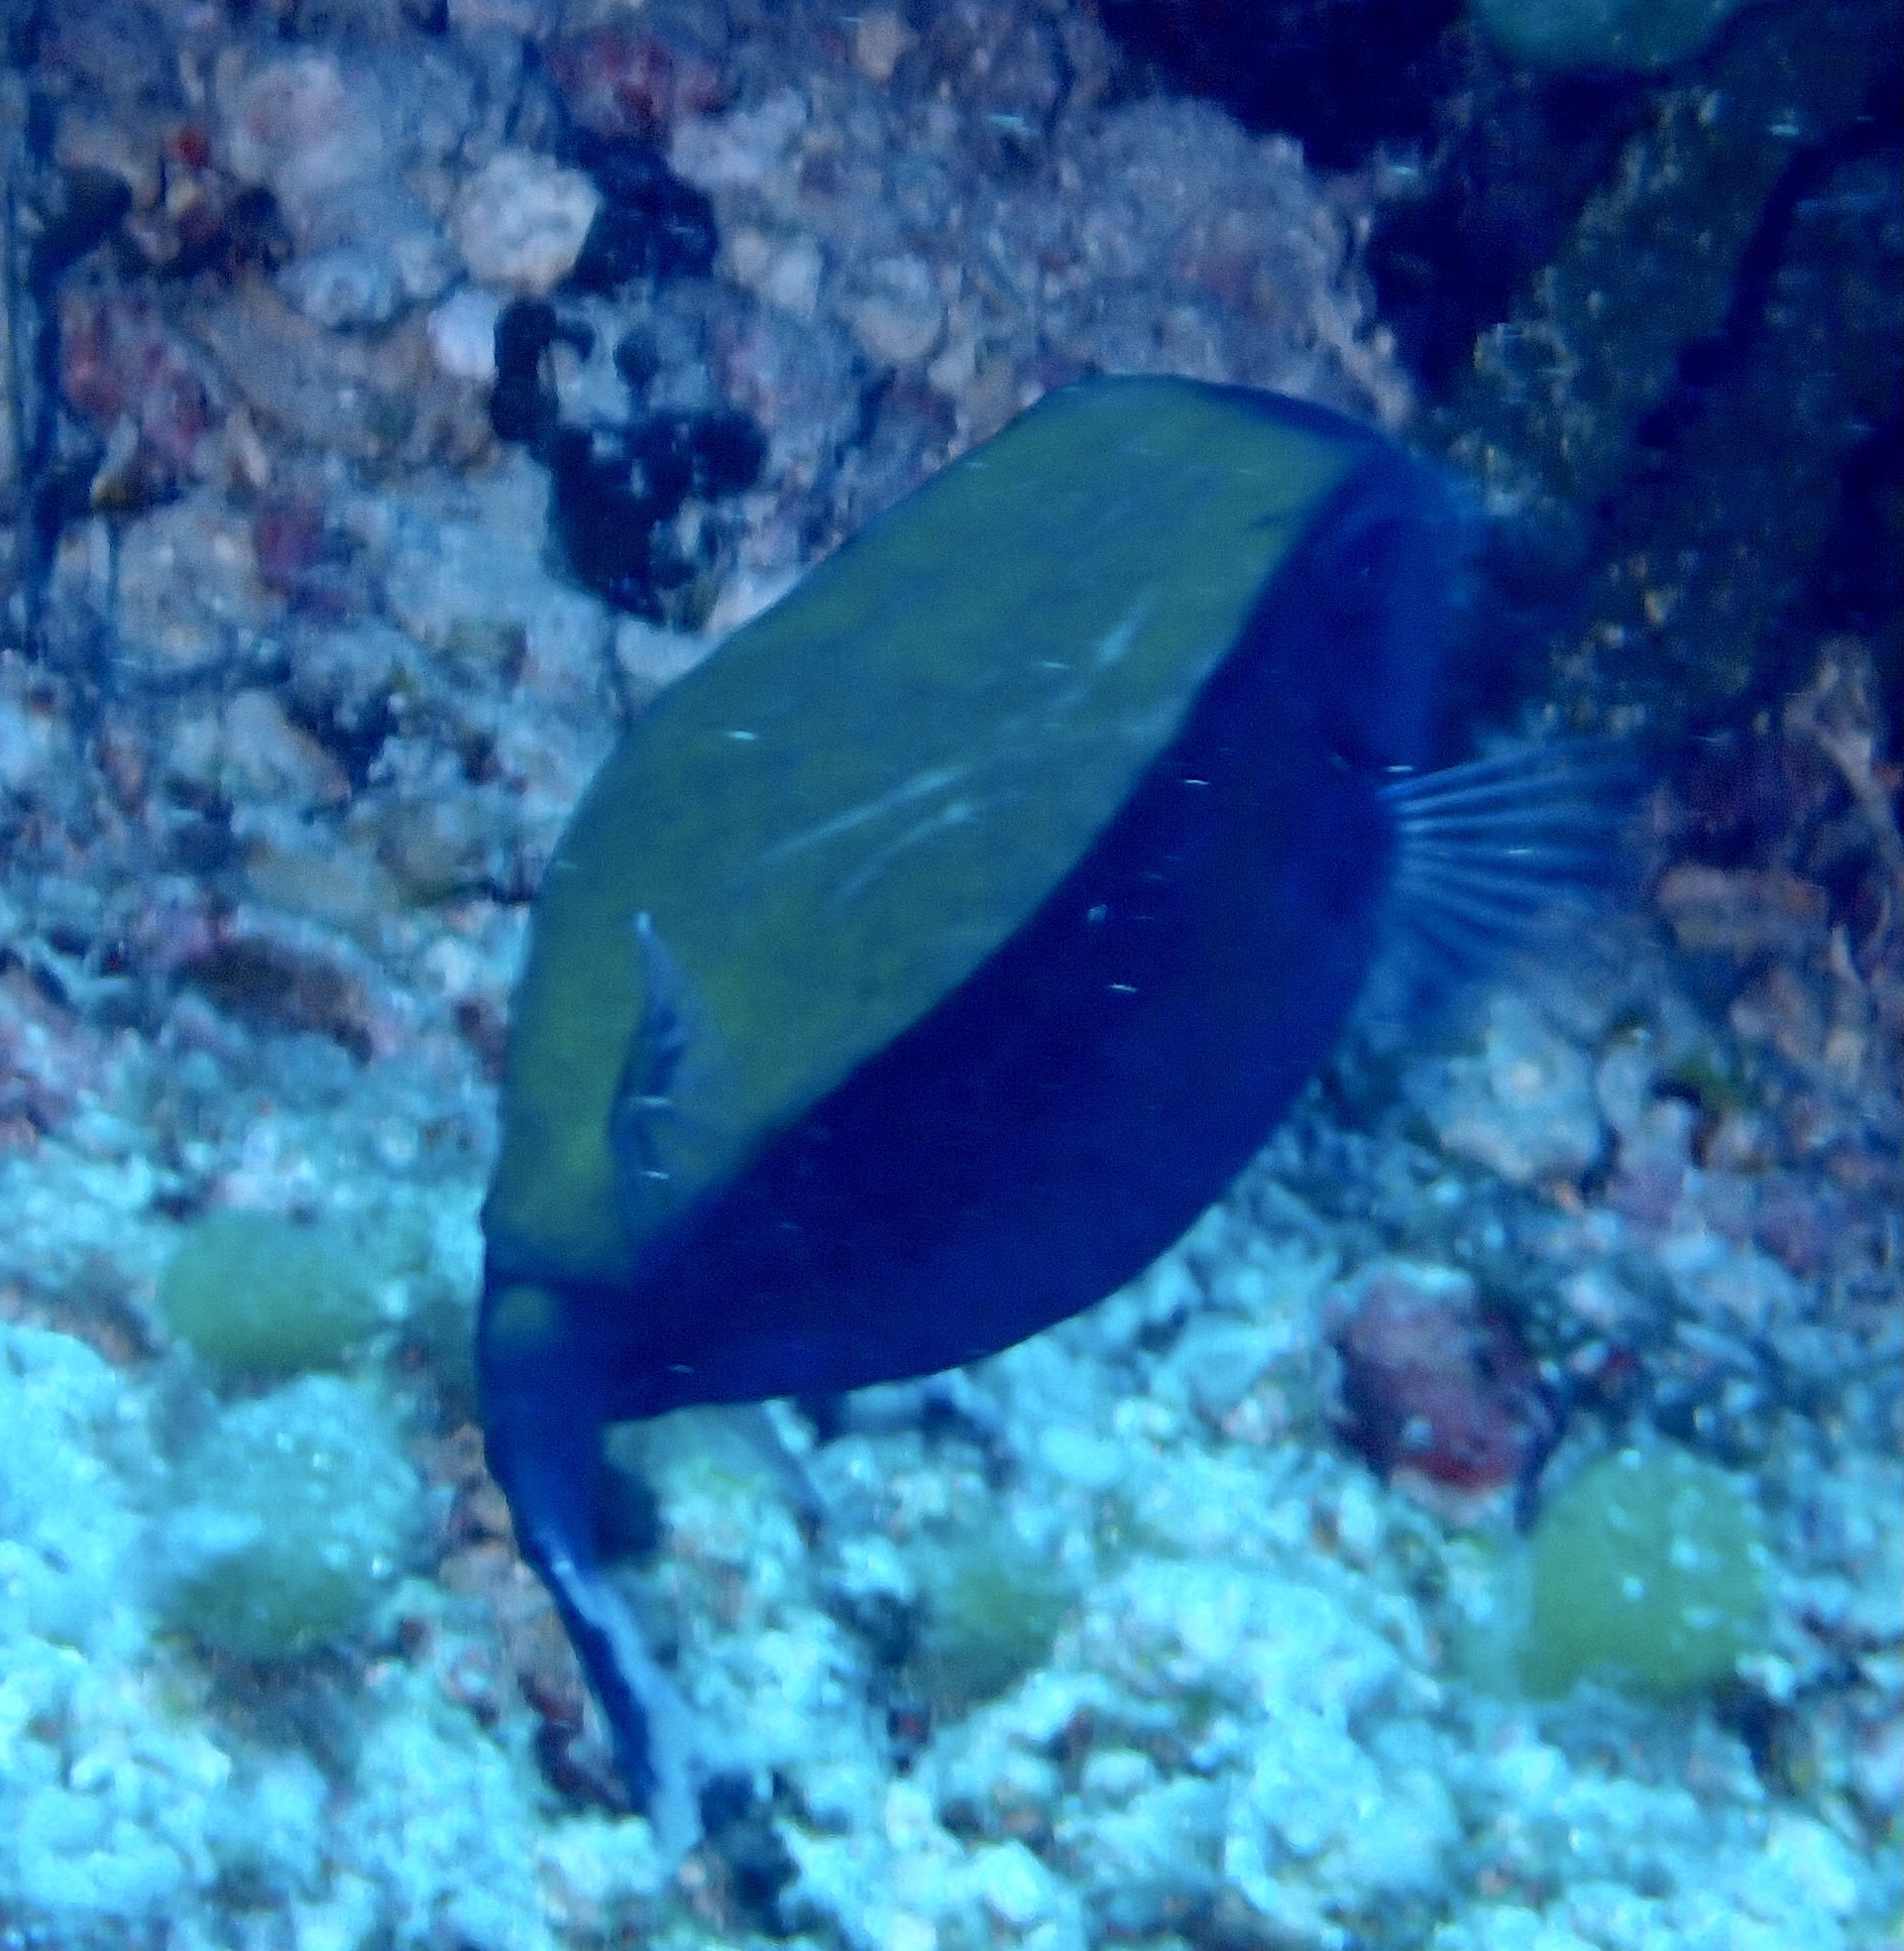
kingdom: Animalia
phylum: Chordata
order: Tetraodontiformes
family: Ostraciidae
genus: Ostracion
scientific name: Ostracion cyanurus
